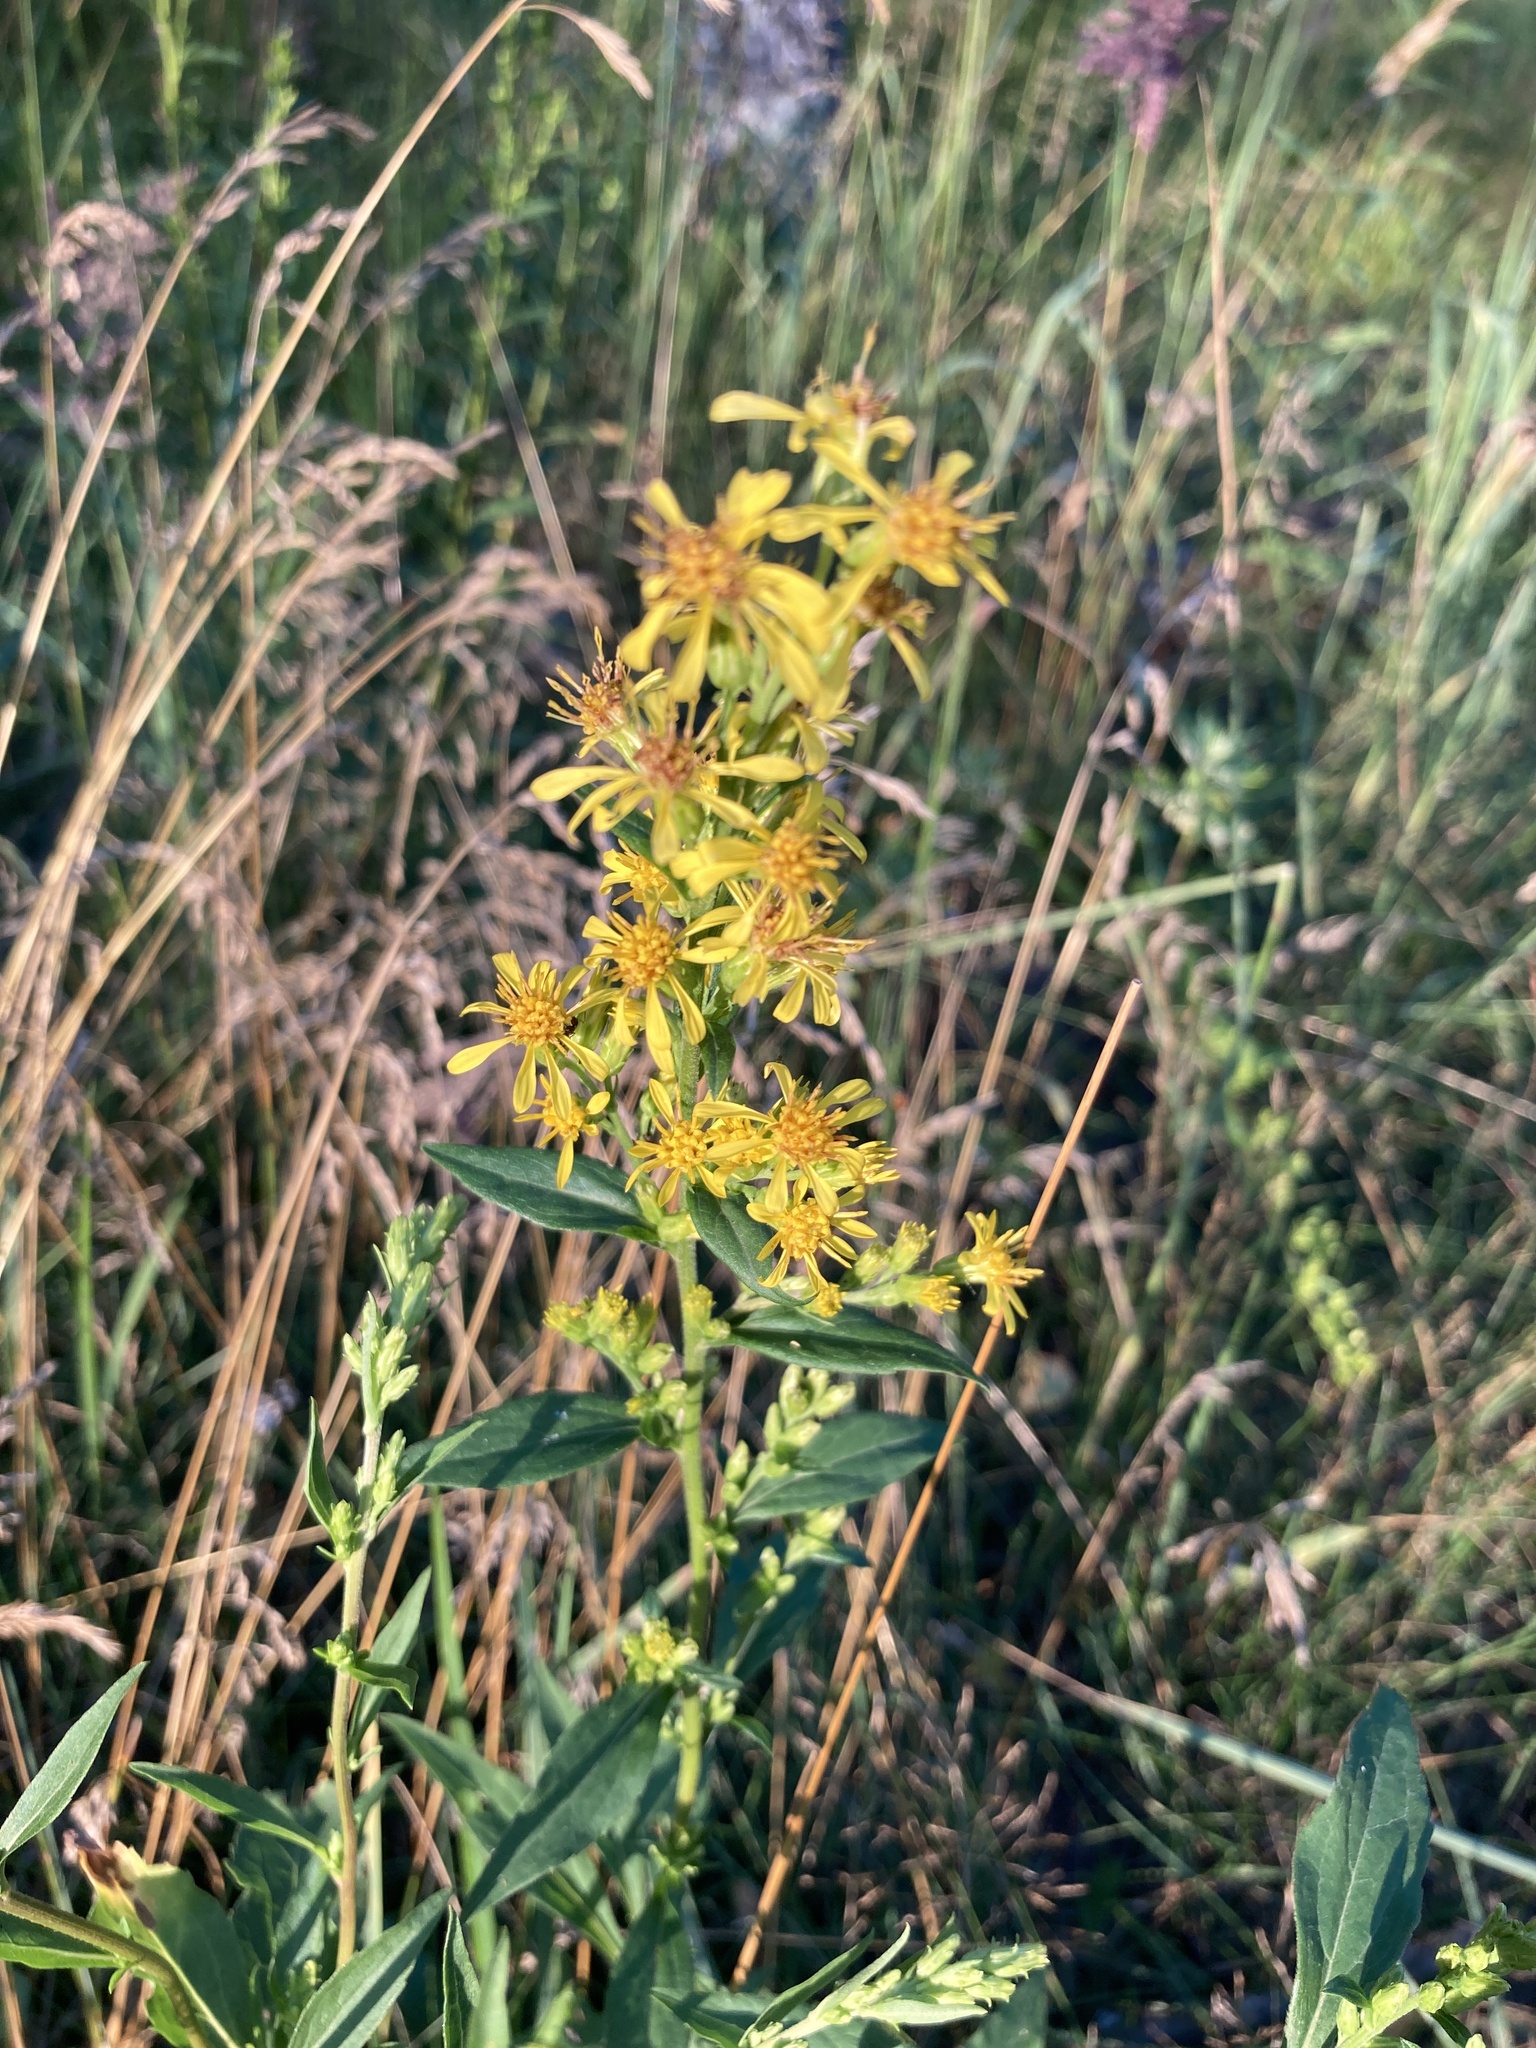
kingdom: Plantae
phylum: Tracheophyta
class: Magnoliopsida
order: Asterales
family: Asteraceae
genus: Solidago
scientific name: Solidago virgaurea
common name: Goldenrod
